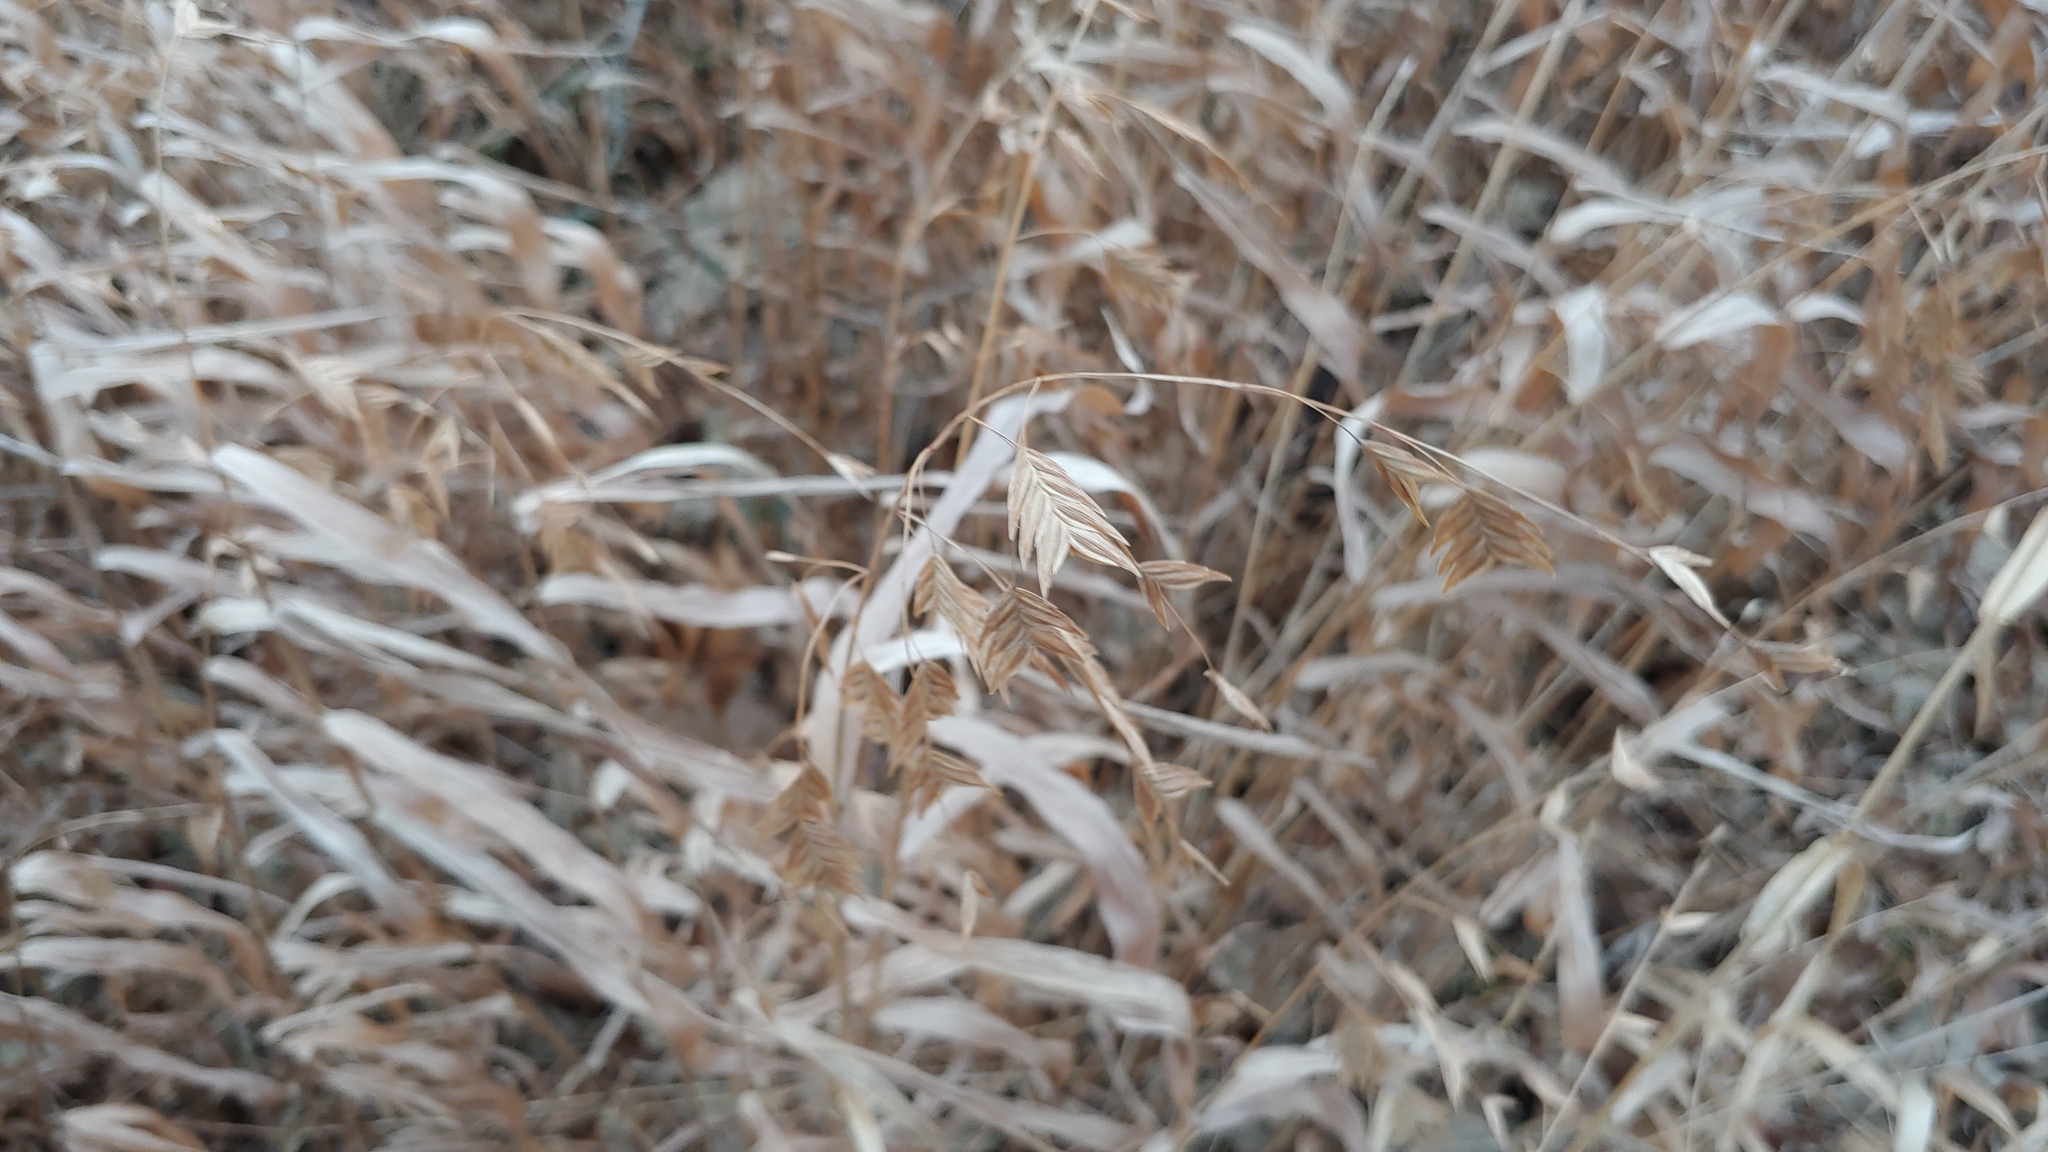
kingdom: Plantae
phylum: Tracheophyta
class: Liliopsida
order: Poales
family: Poaceae
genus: Chasmanthium
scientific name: Chasmanthium latifolium
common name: Broad-leaved chasmanthium
